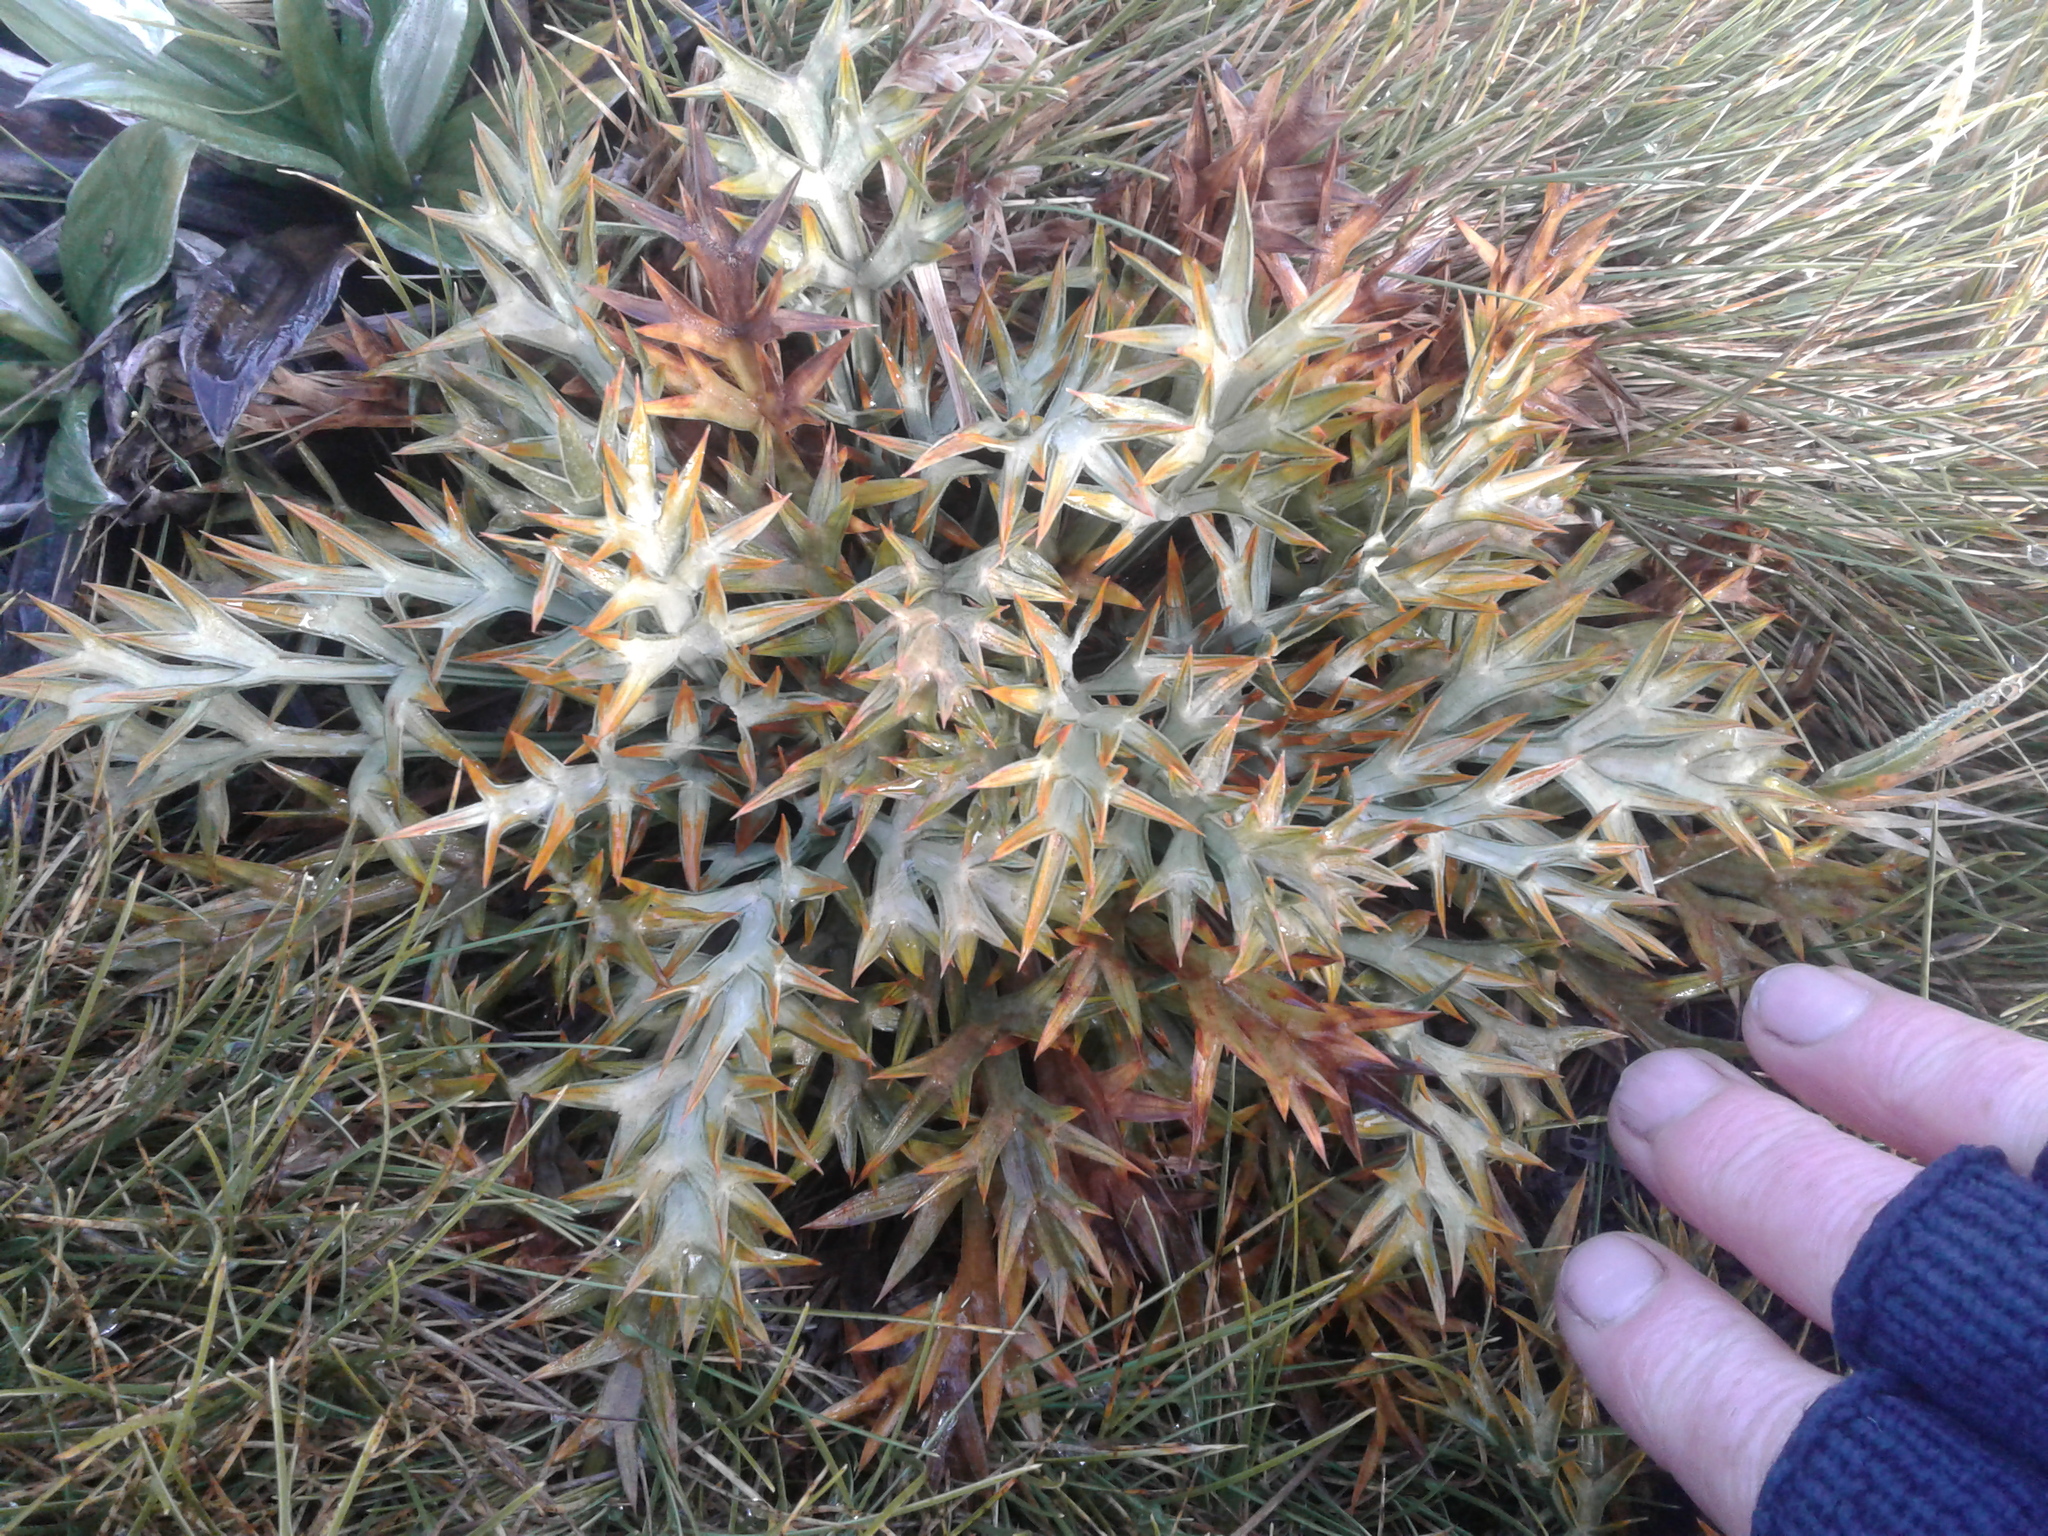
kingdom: Plantae
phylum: Tracheophyta
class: Magnoliopsida
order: Apiales
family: Apiaceae
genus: Aciphylla
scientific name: Aciphylla hookeri
